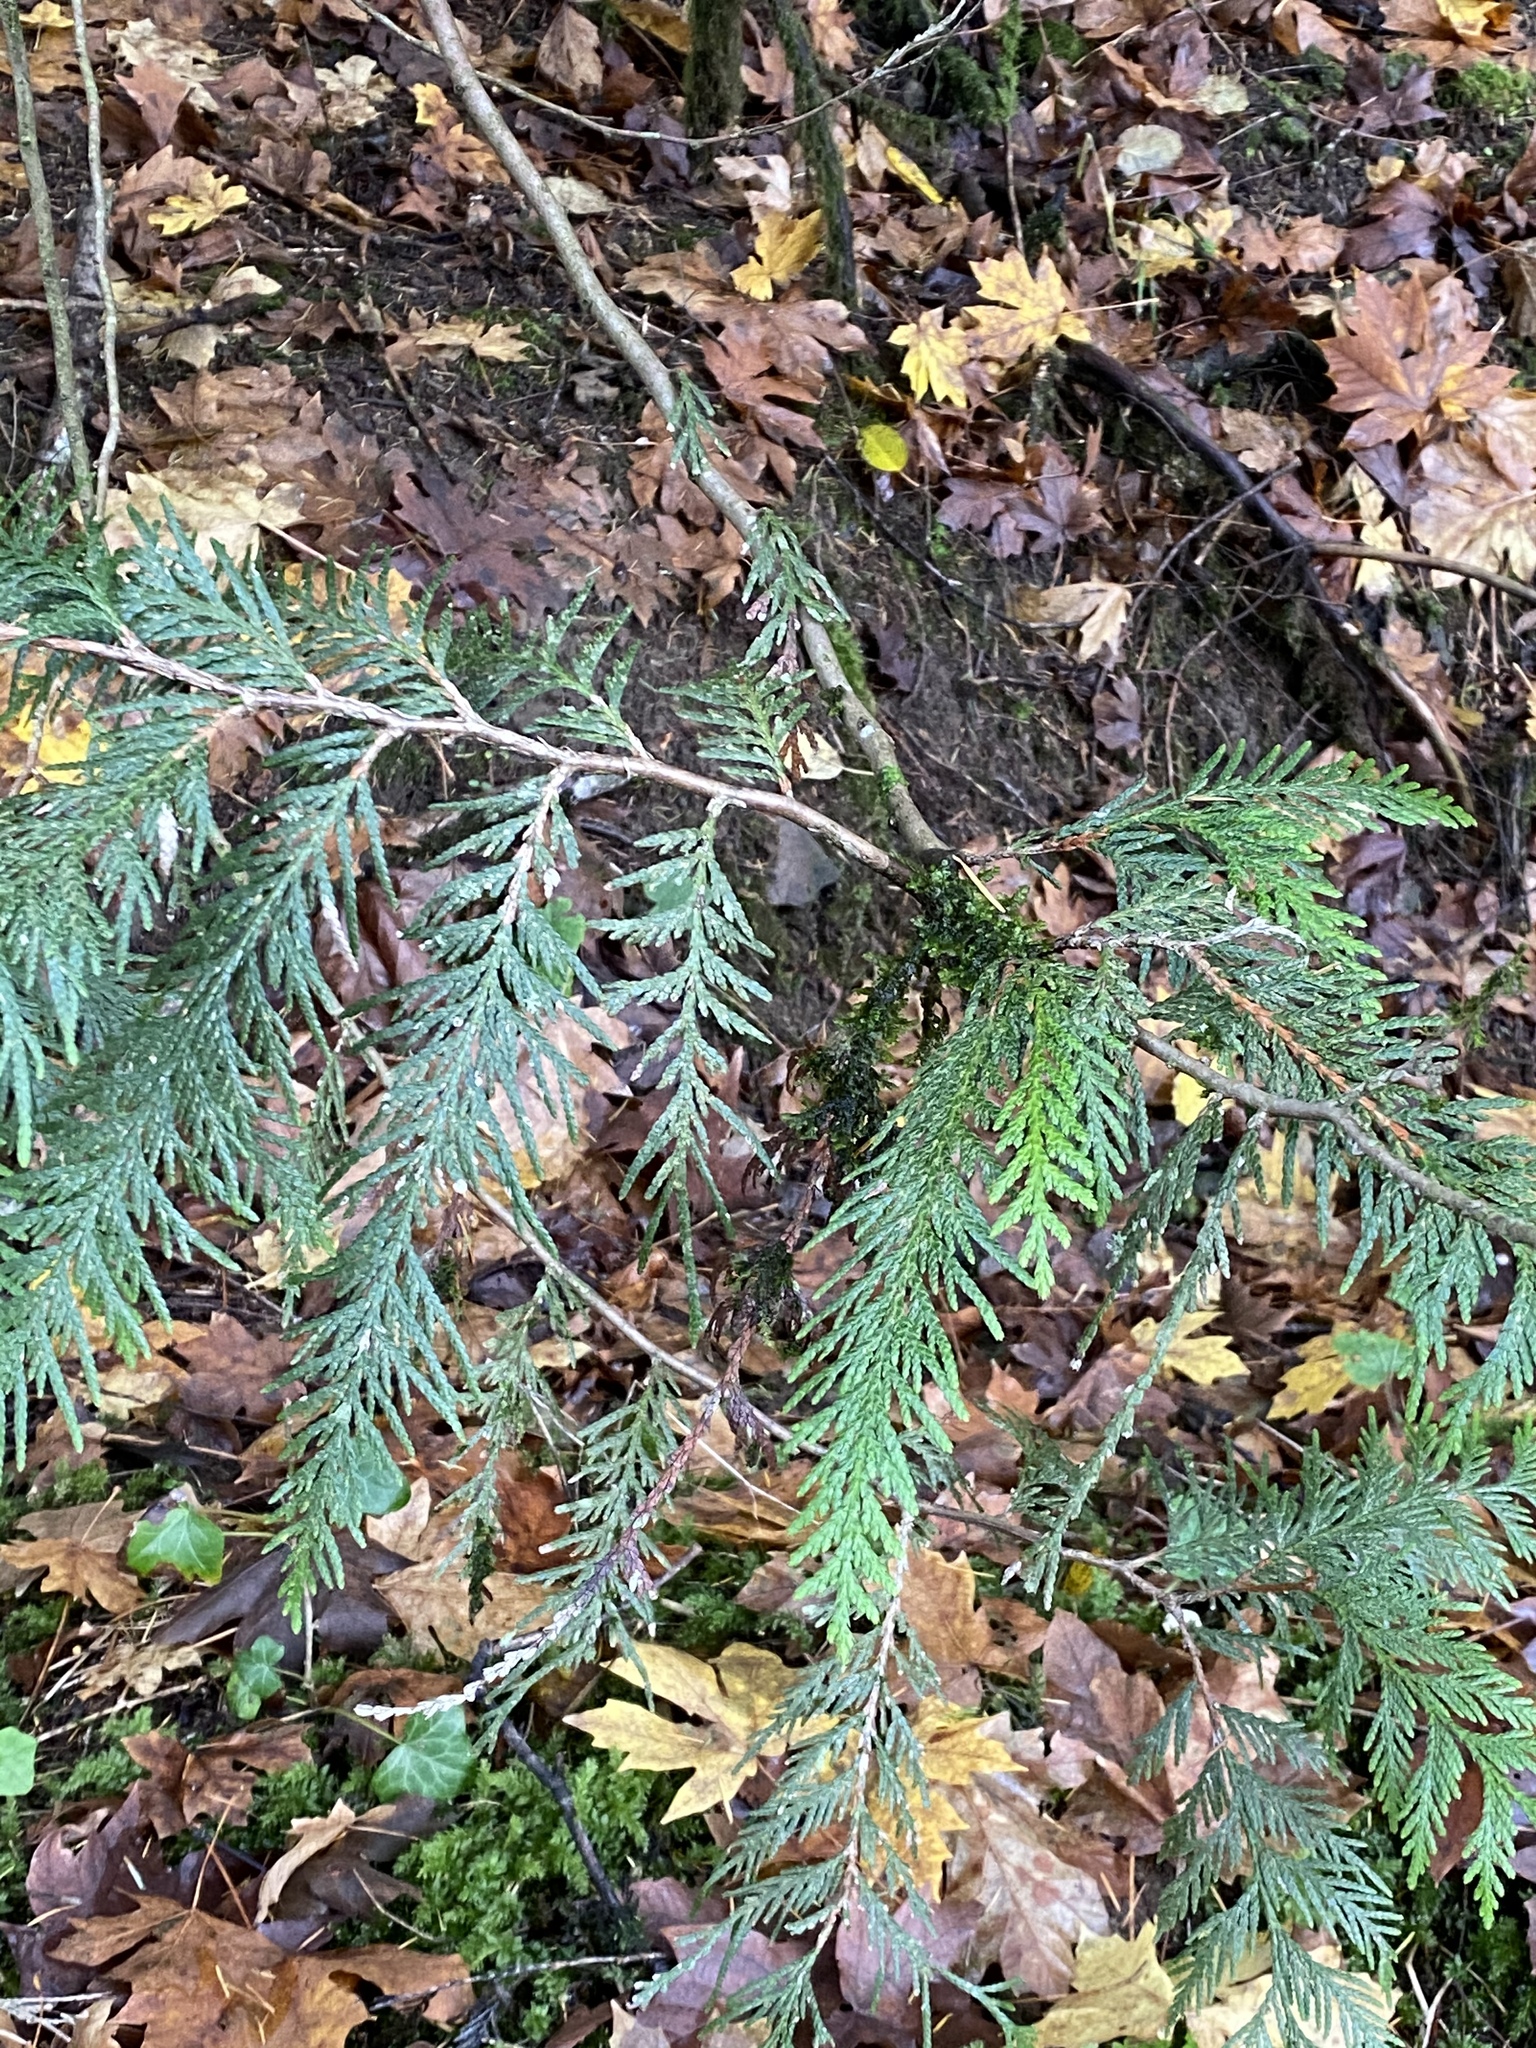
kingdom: Plantae
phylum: Tracheophyta
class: Pinopsida
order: Pinales
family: Cupressaceae
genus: Thuja
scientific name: Thuja plicata
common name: Western red-cedar
